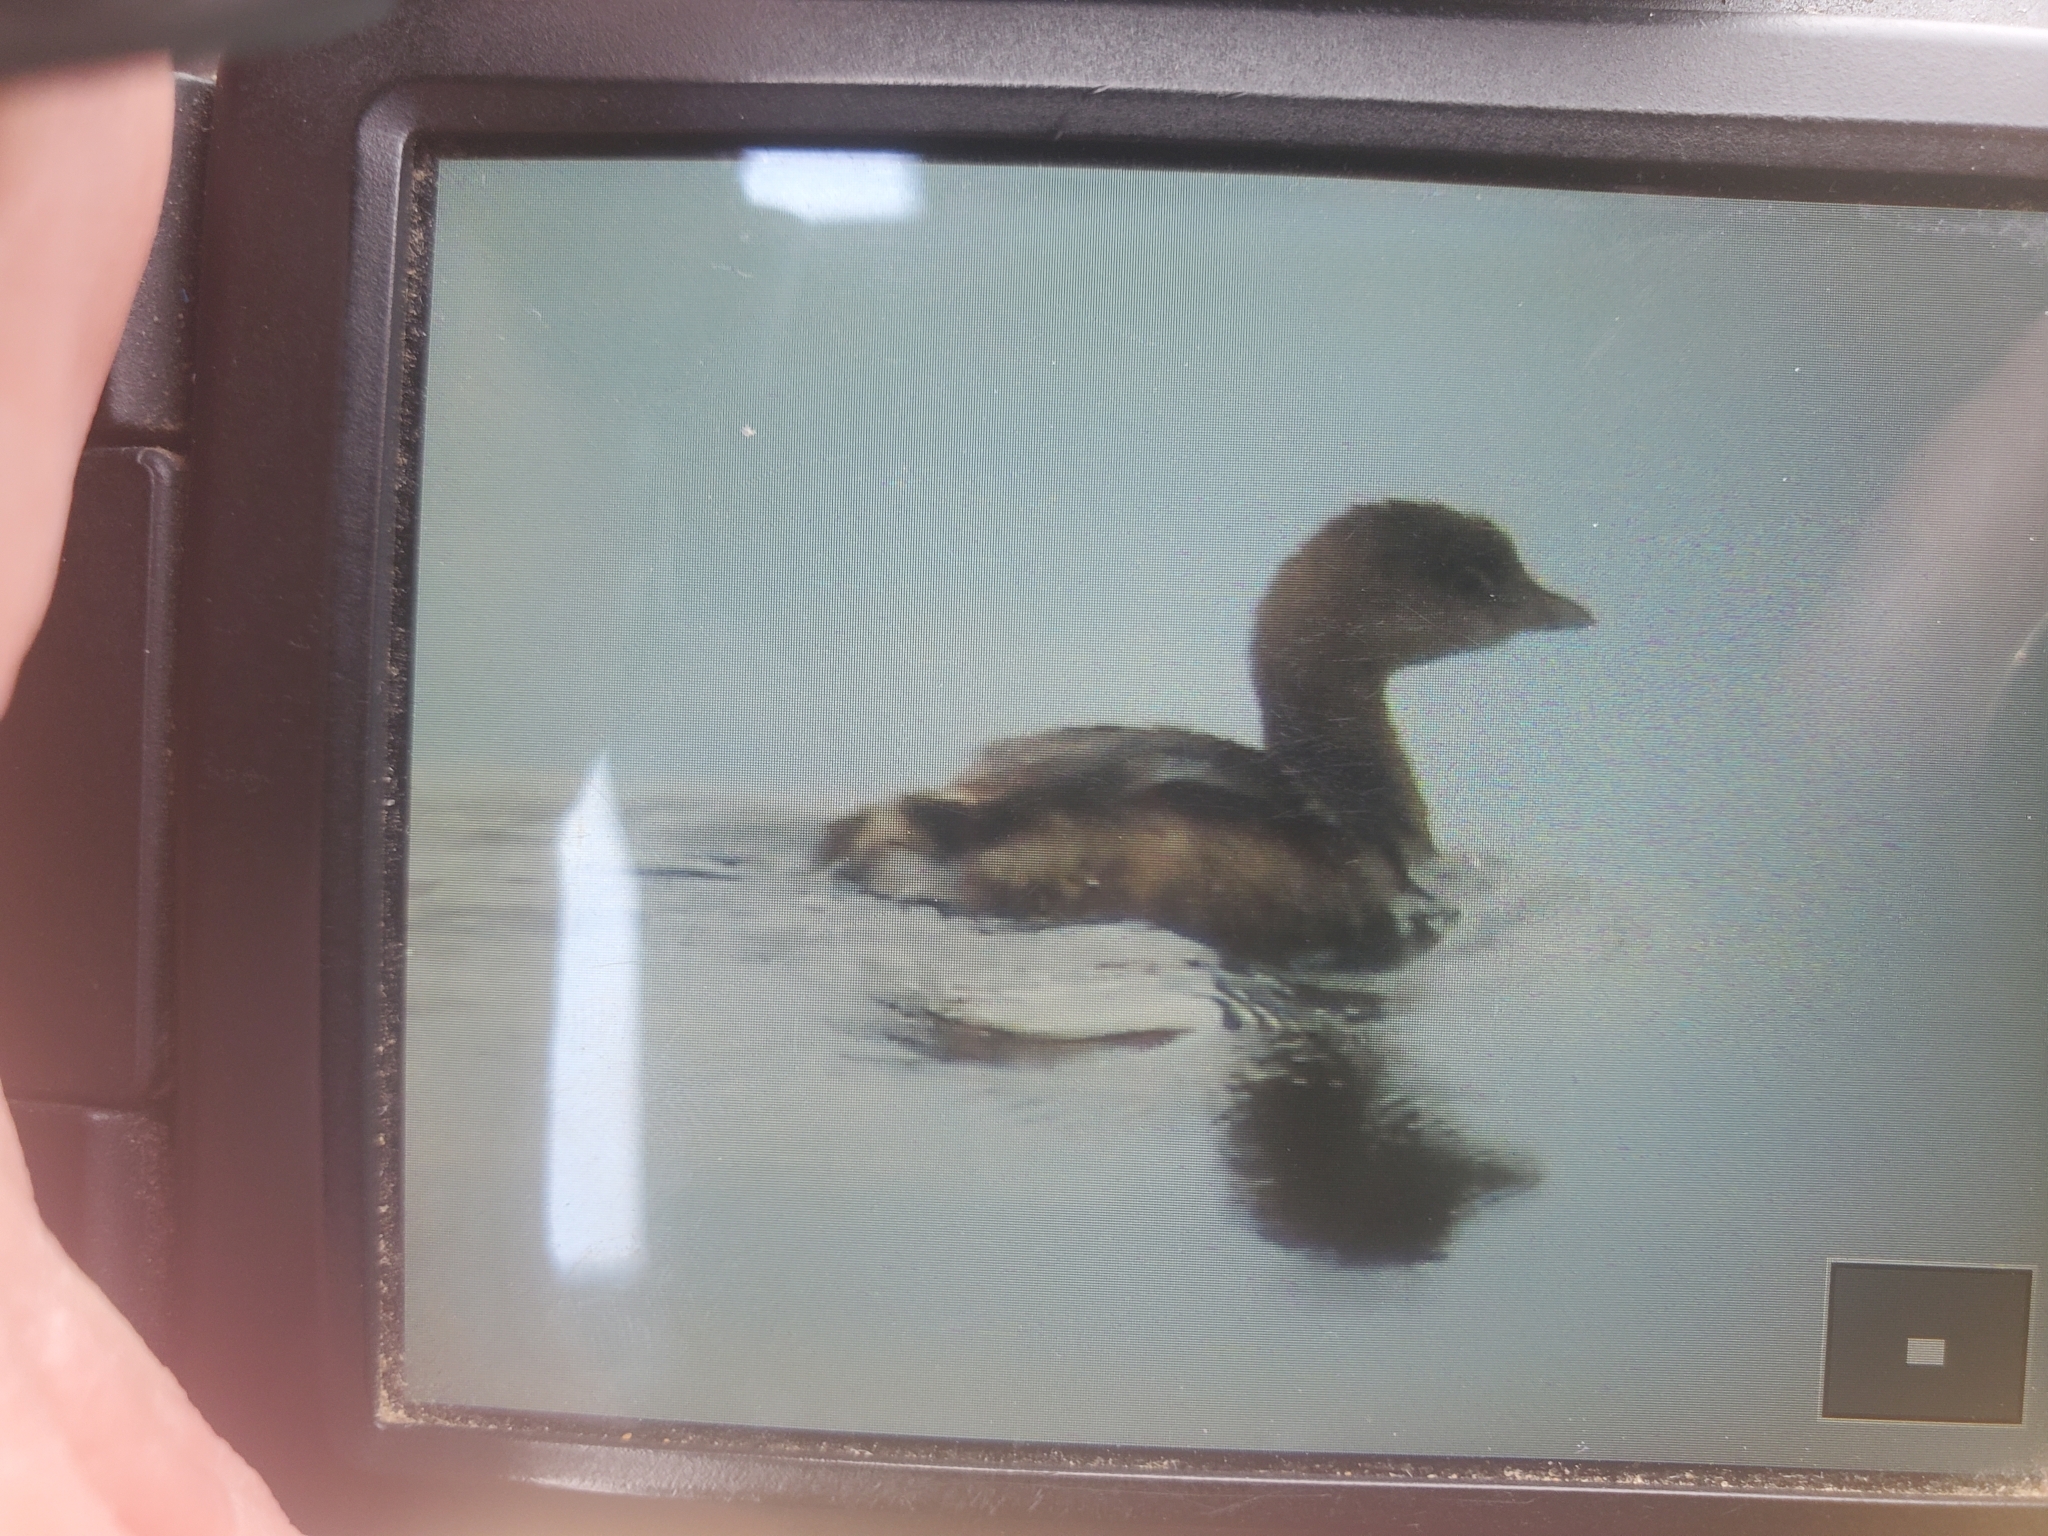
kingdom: Animalia
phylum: Chordata
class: Aves
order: Podicipediformes
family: Podicipedidae
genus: Podilymbus
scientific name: Podilymbus podiceps
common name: Pied-billed grebe
